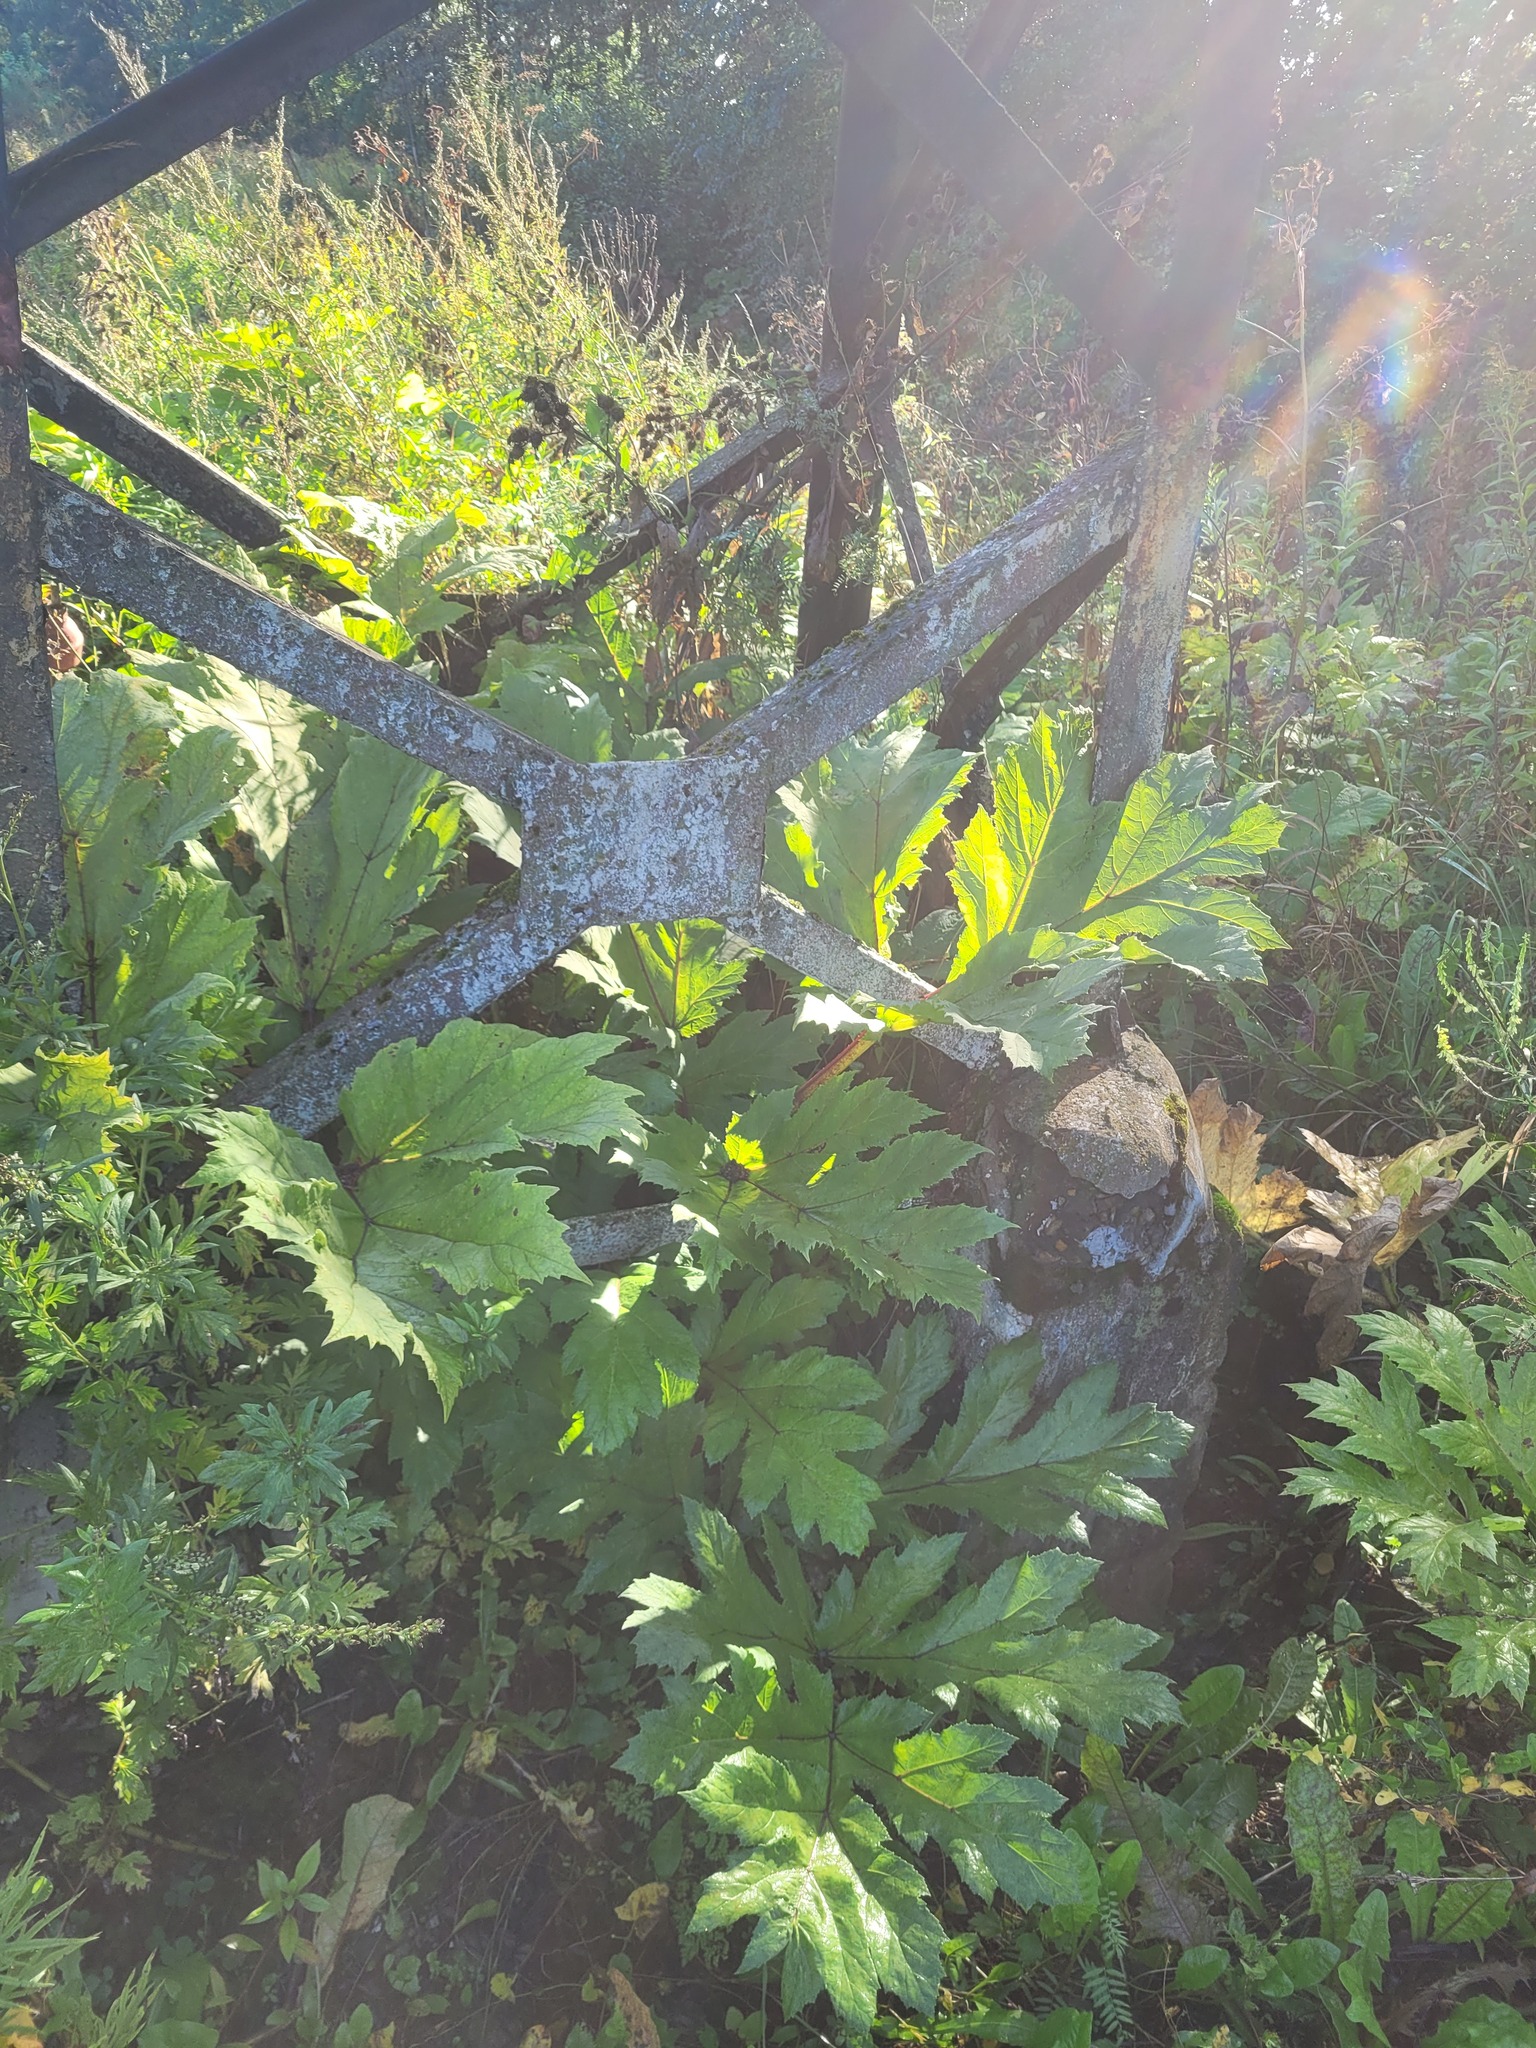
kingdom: Plantae
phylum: Tracheophyta
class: Magnoliopsida
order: Apiales
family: Apiaceae
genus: Heracleum
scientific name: Heracleum sosnowskyi
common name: Sosnowsky's hogweed
